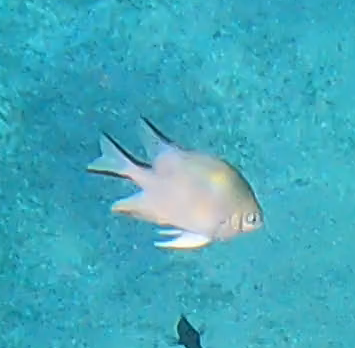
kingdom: Animalia
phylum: Chordata
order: Perciformes
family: Pomacentridae
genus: Amblyglyphidodon
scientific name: Amblyglyphidodon indicus
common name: Maldives damselfish
